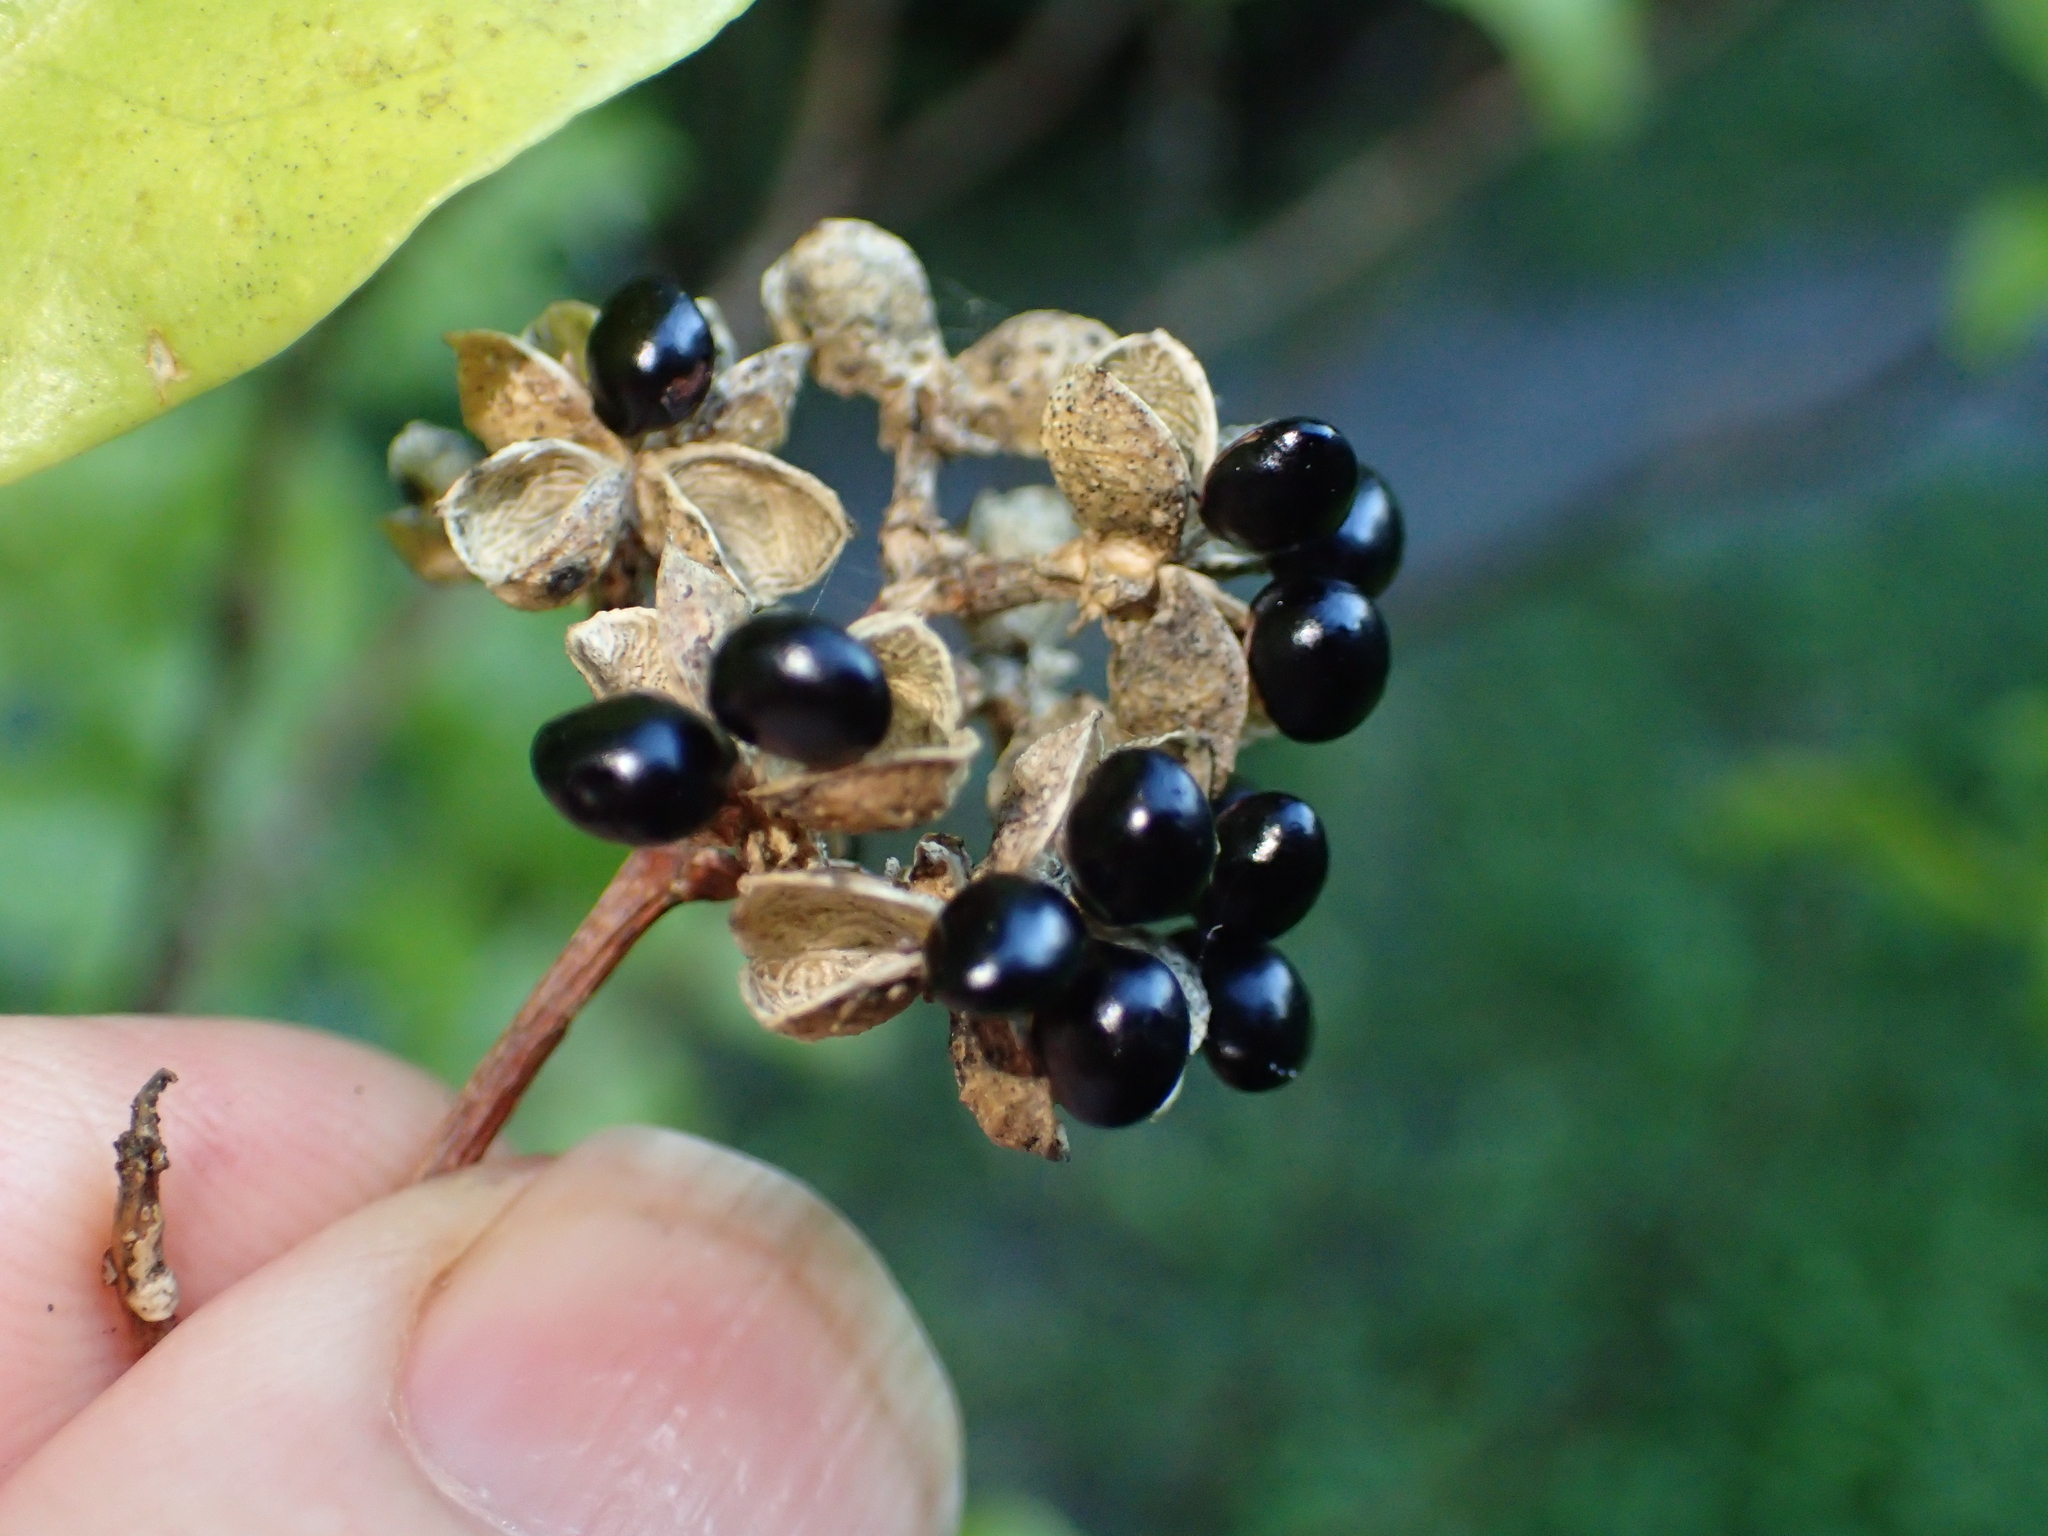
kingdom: Plantae
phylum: Tracheophyta
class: Magnoliopsida
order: Sapindales
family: Rutaceae
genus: Melicope
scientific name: Melicope ternata
